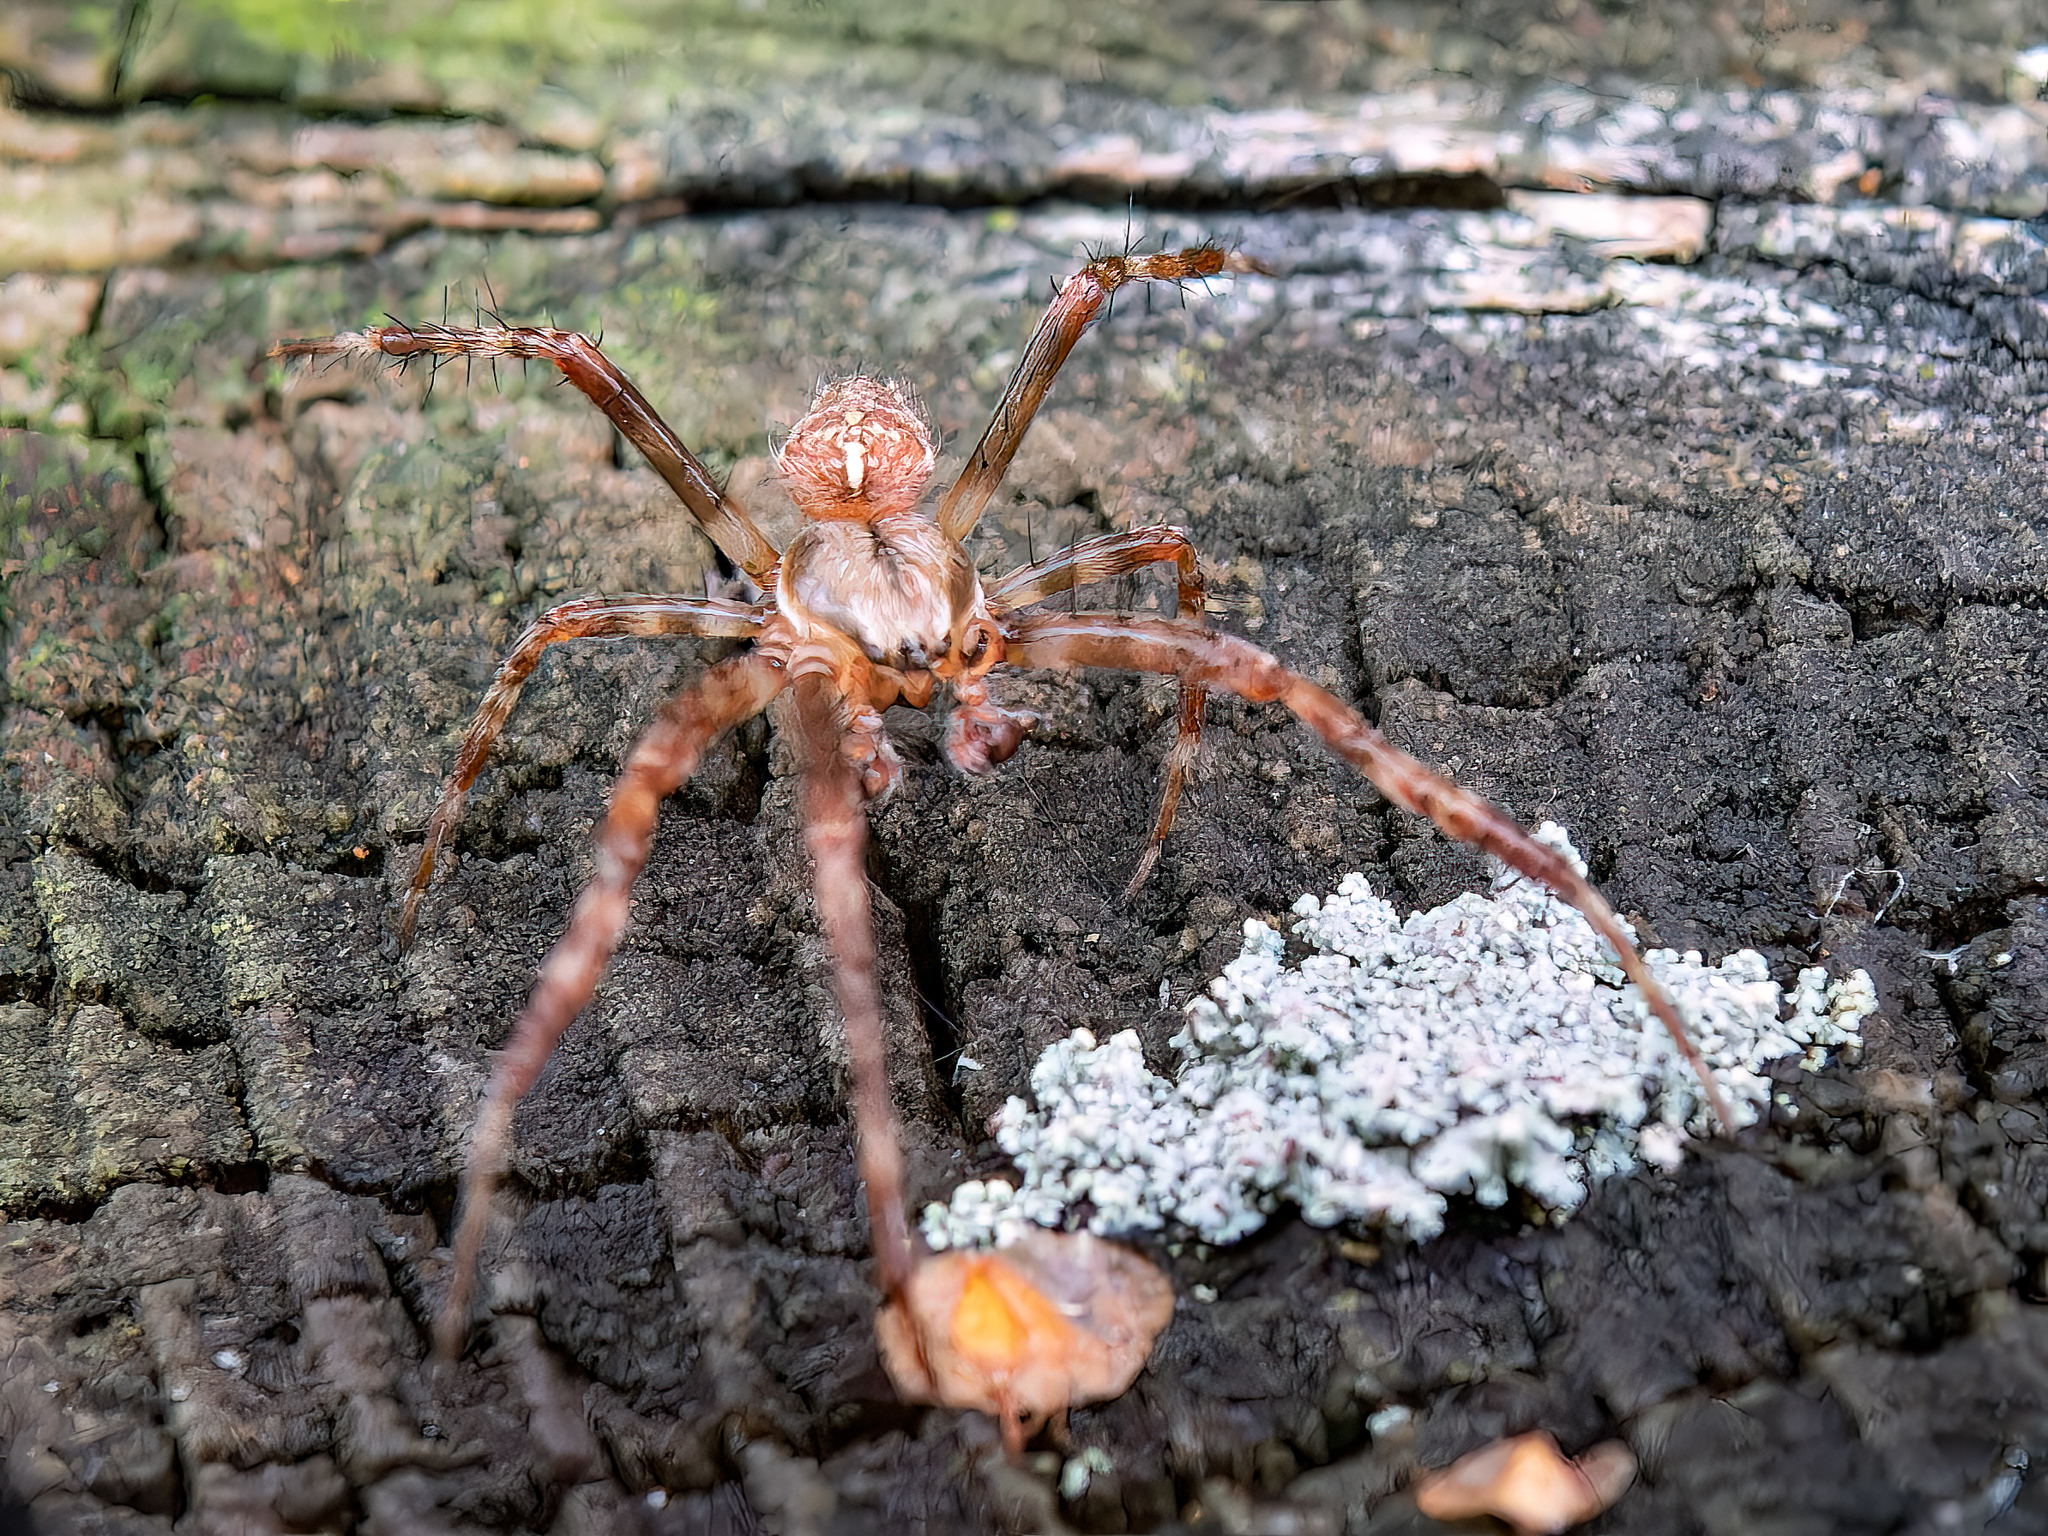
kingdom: Animalia
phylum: Arthropoda
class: Arachnida
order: Araneae
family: Araneidae
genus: Araneus
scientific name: Araneus diadematus
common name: Cross orbweaver
